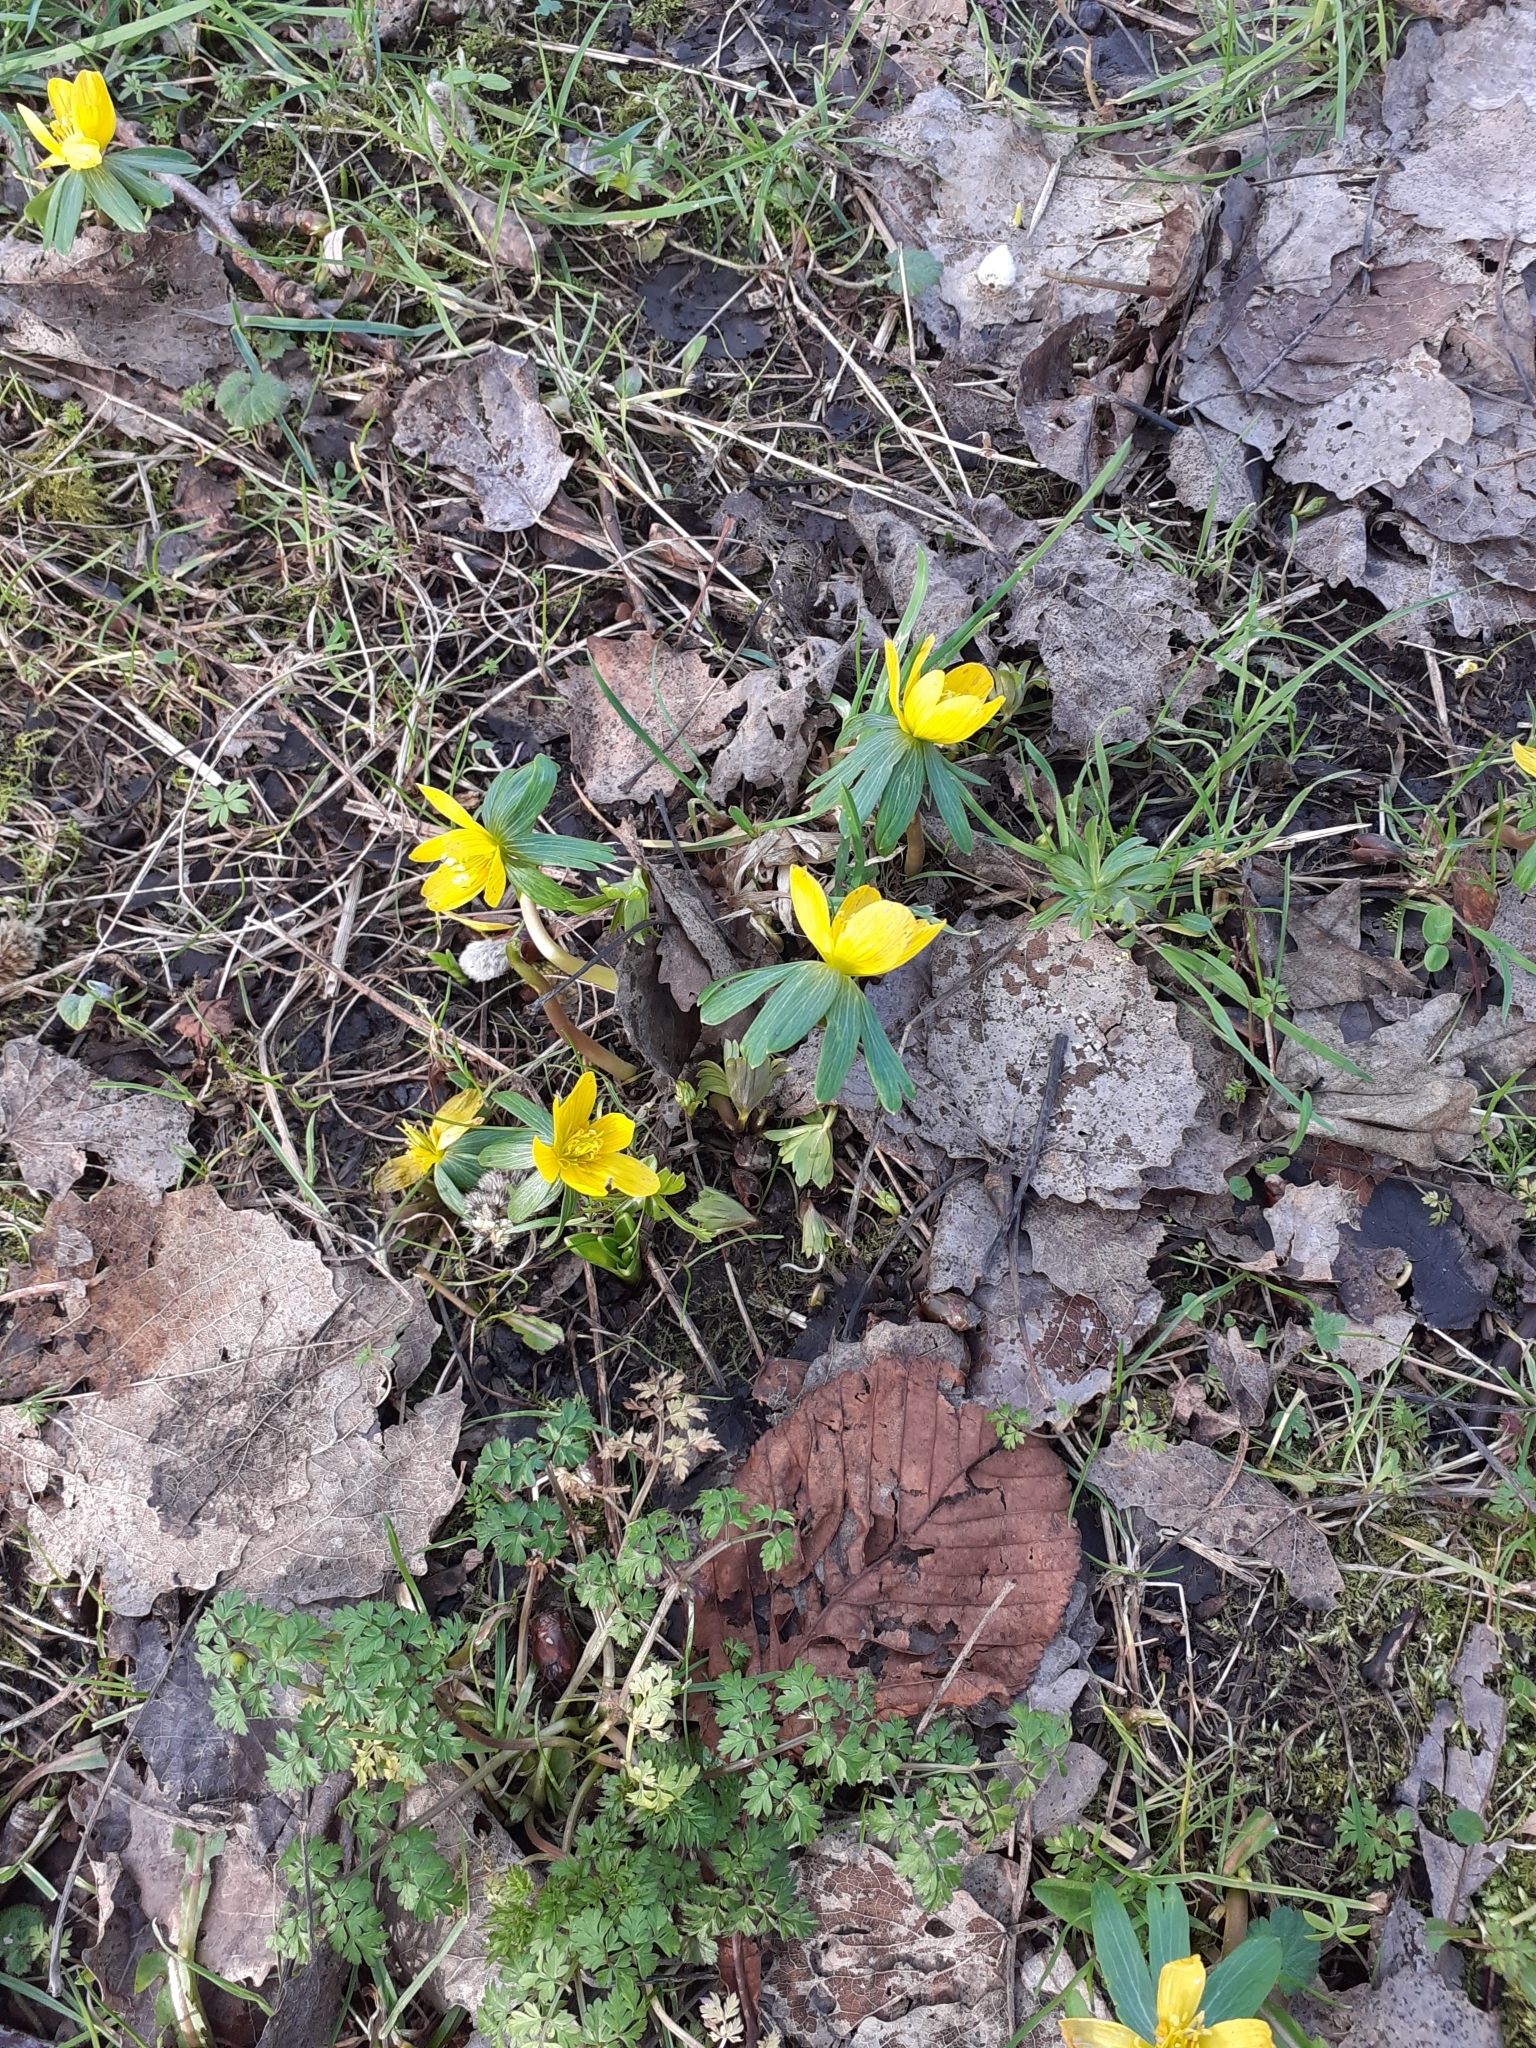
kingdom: Plantae
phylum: Tracheophyta
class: Magnoliopsida
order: Ranunculales
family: Ranunculaceae
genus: Eranthis
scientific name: Eranthis hyemalis
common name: Winter aconite
